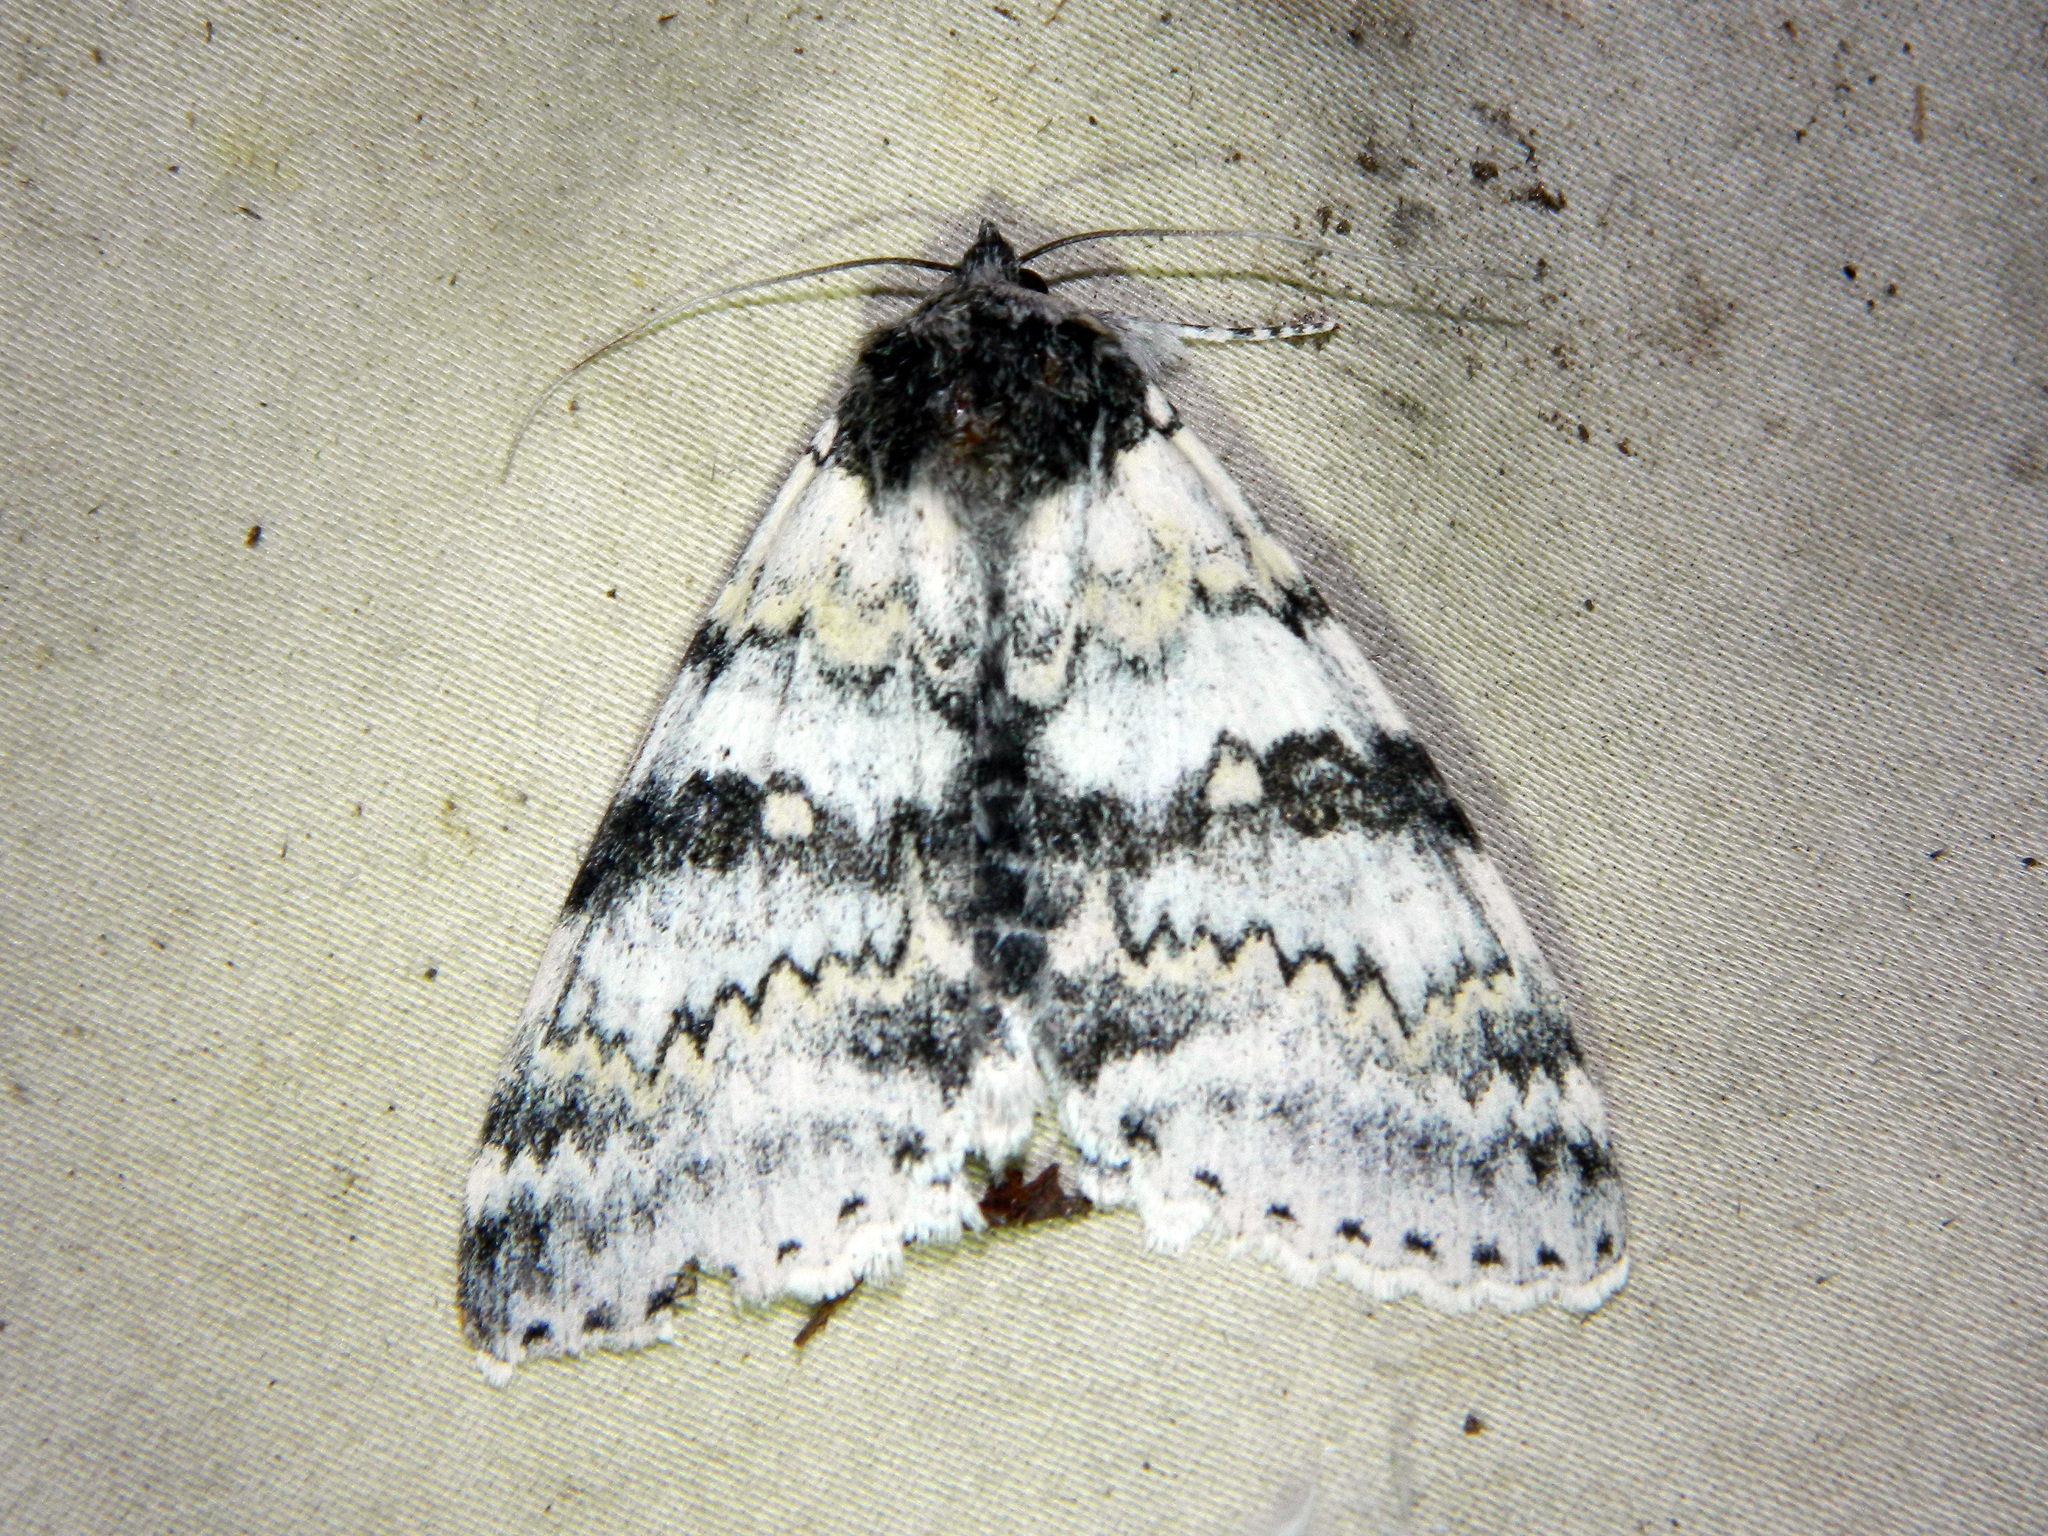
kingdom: Animalia
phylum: Arthropoda
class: Insecta
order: Lepidoptera
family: Erebidae
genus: Catocala
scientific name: Catocala relicta
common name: White underwing
